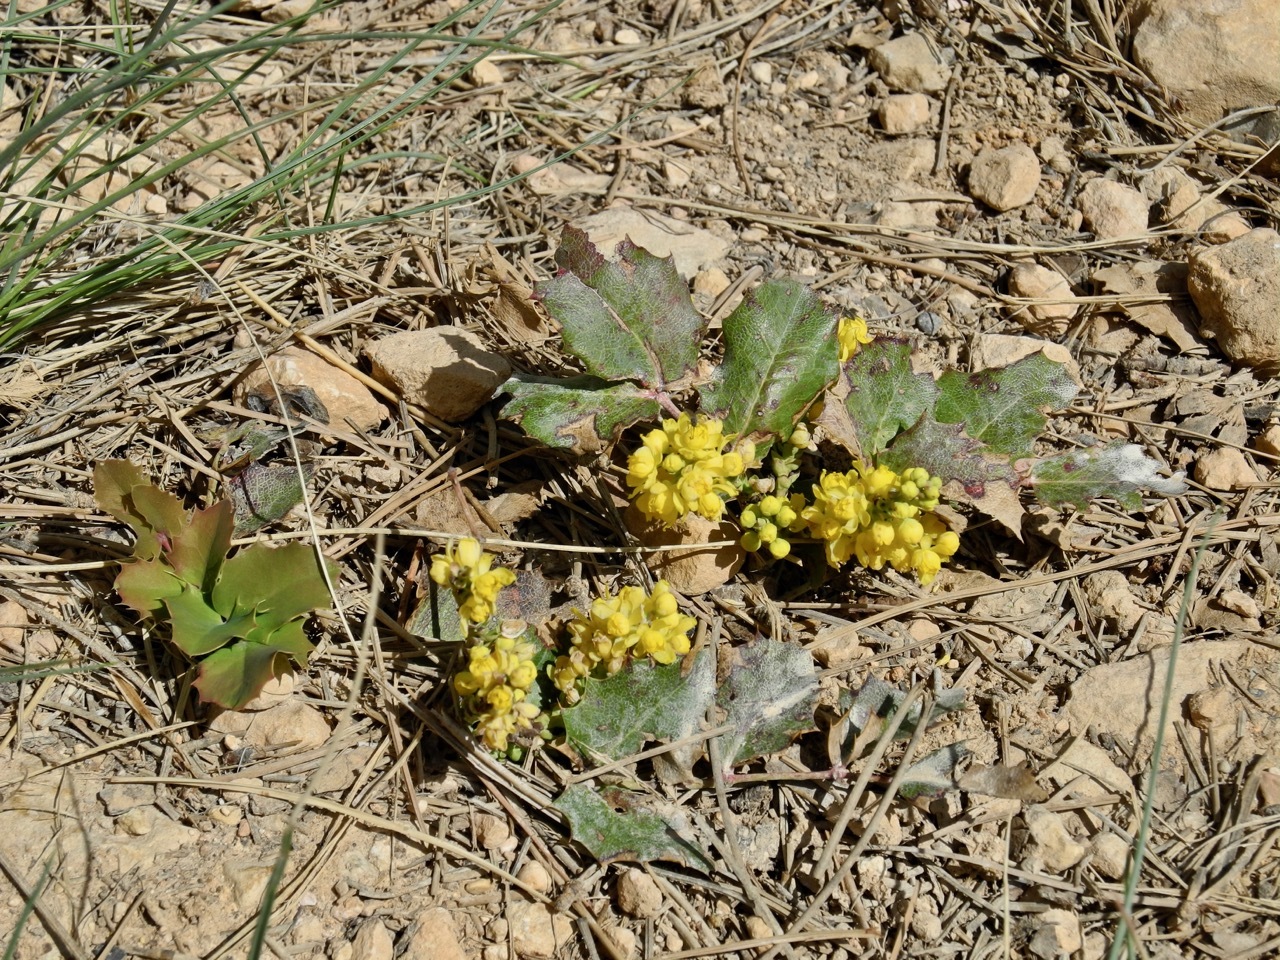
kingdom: Plantae
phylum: Tracheophyta
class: Magnoliopsida
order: Ranunculales
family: Berberidaceae
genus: Mahonia
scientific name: Mahonia repens
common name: Creeping oregon-grape
